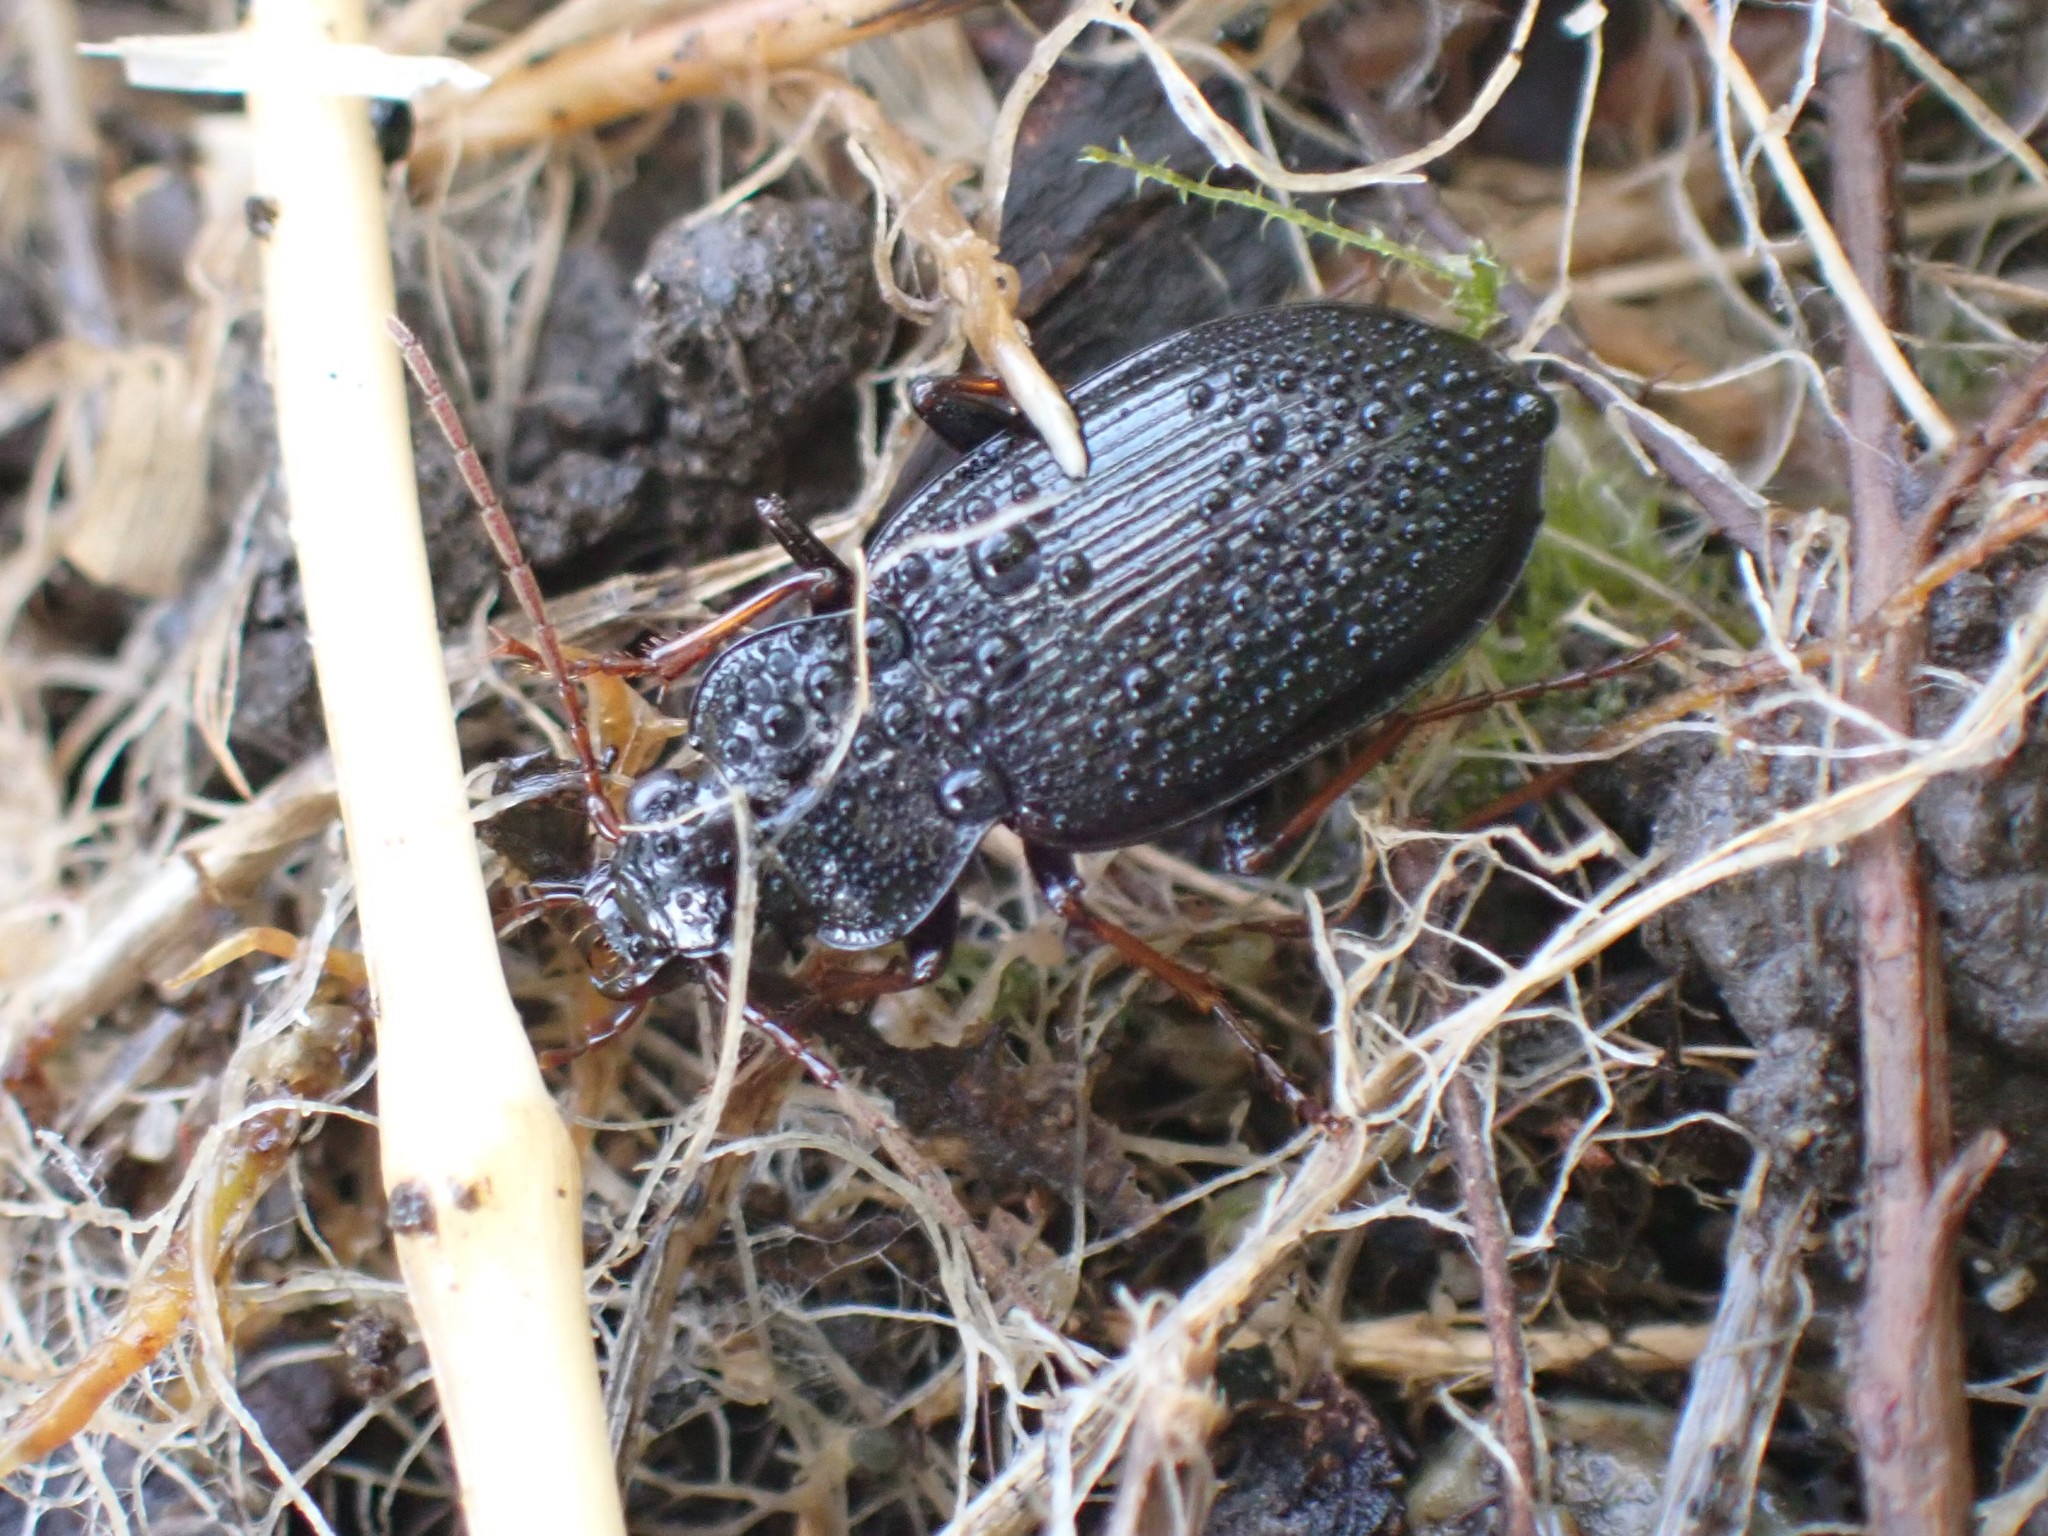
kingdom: Animalia
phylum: Arthropoda
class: Insecta
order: Coleoptera
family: Carabidae
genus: Nebria
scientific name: Nebria brevicollis
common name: Short-necked gazelle beetle
